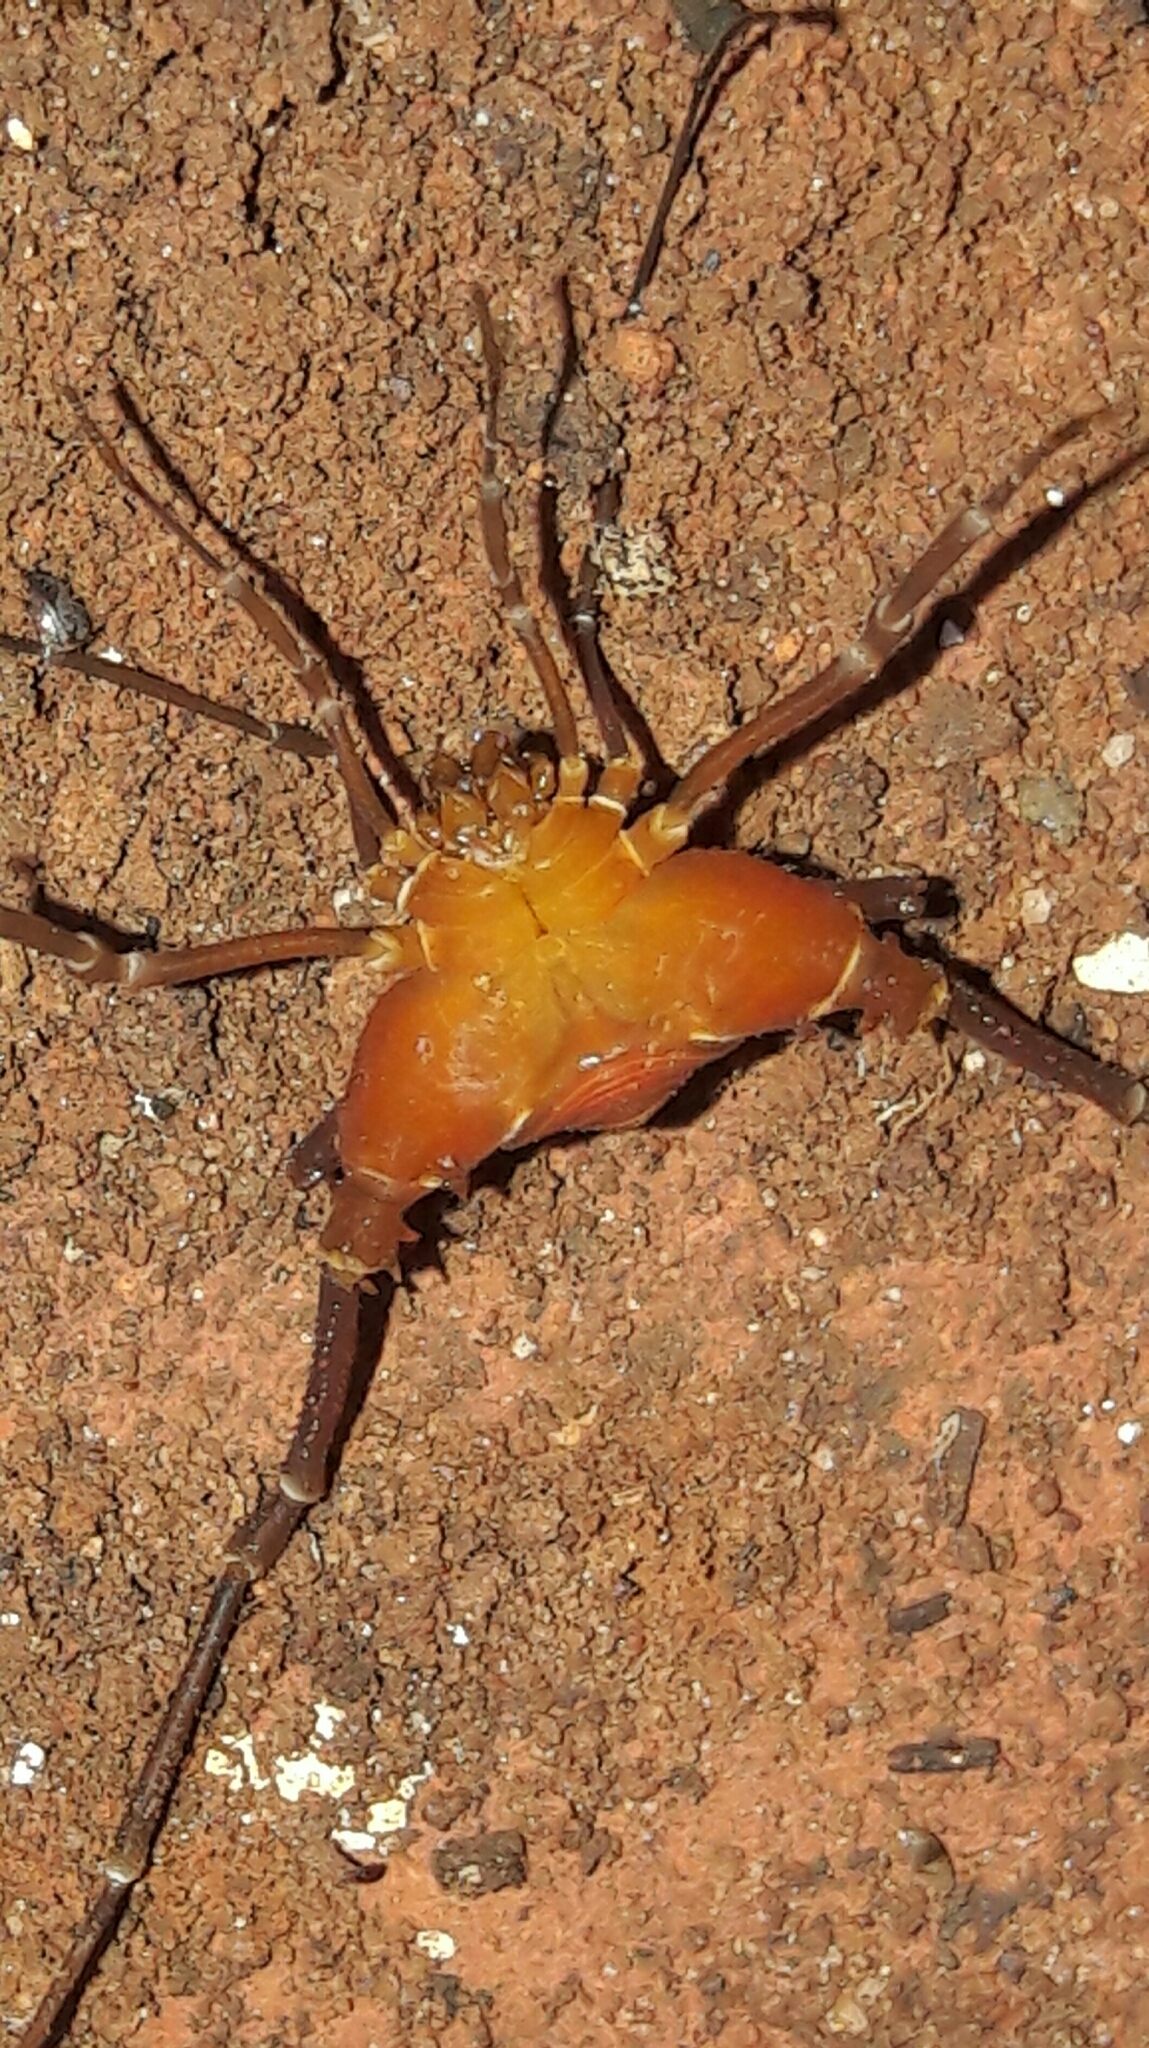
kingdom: Animalia
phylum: Arthropoda
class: Arachnida
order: Opiliones
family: Gonyleptidae
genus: Krateromaspis
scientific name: Krateromaspis dilatata
